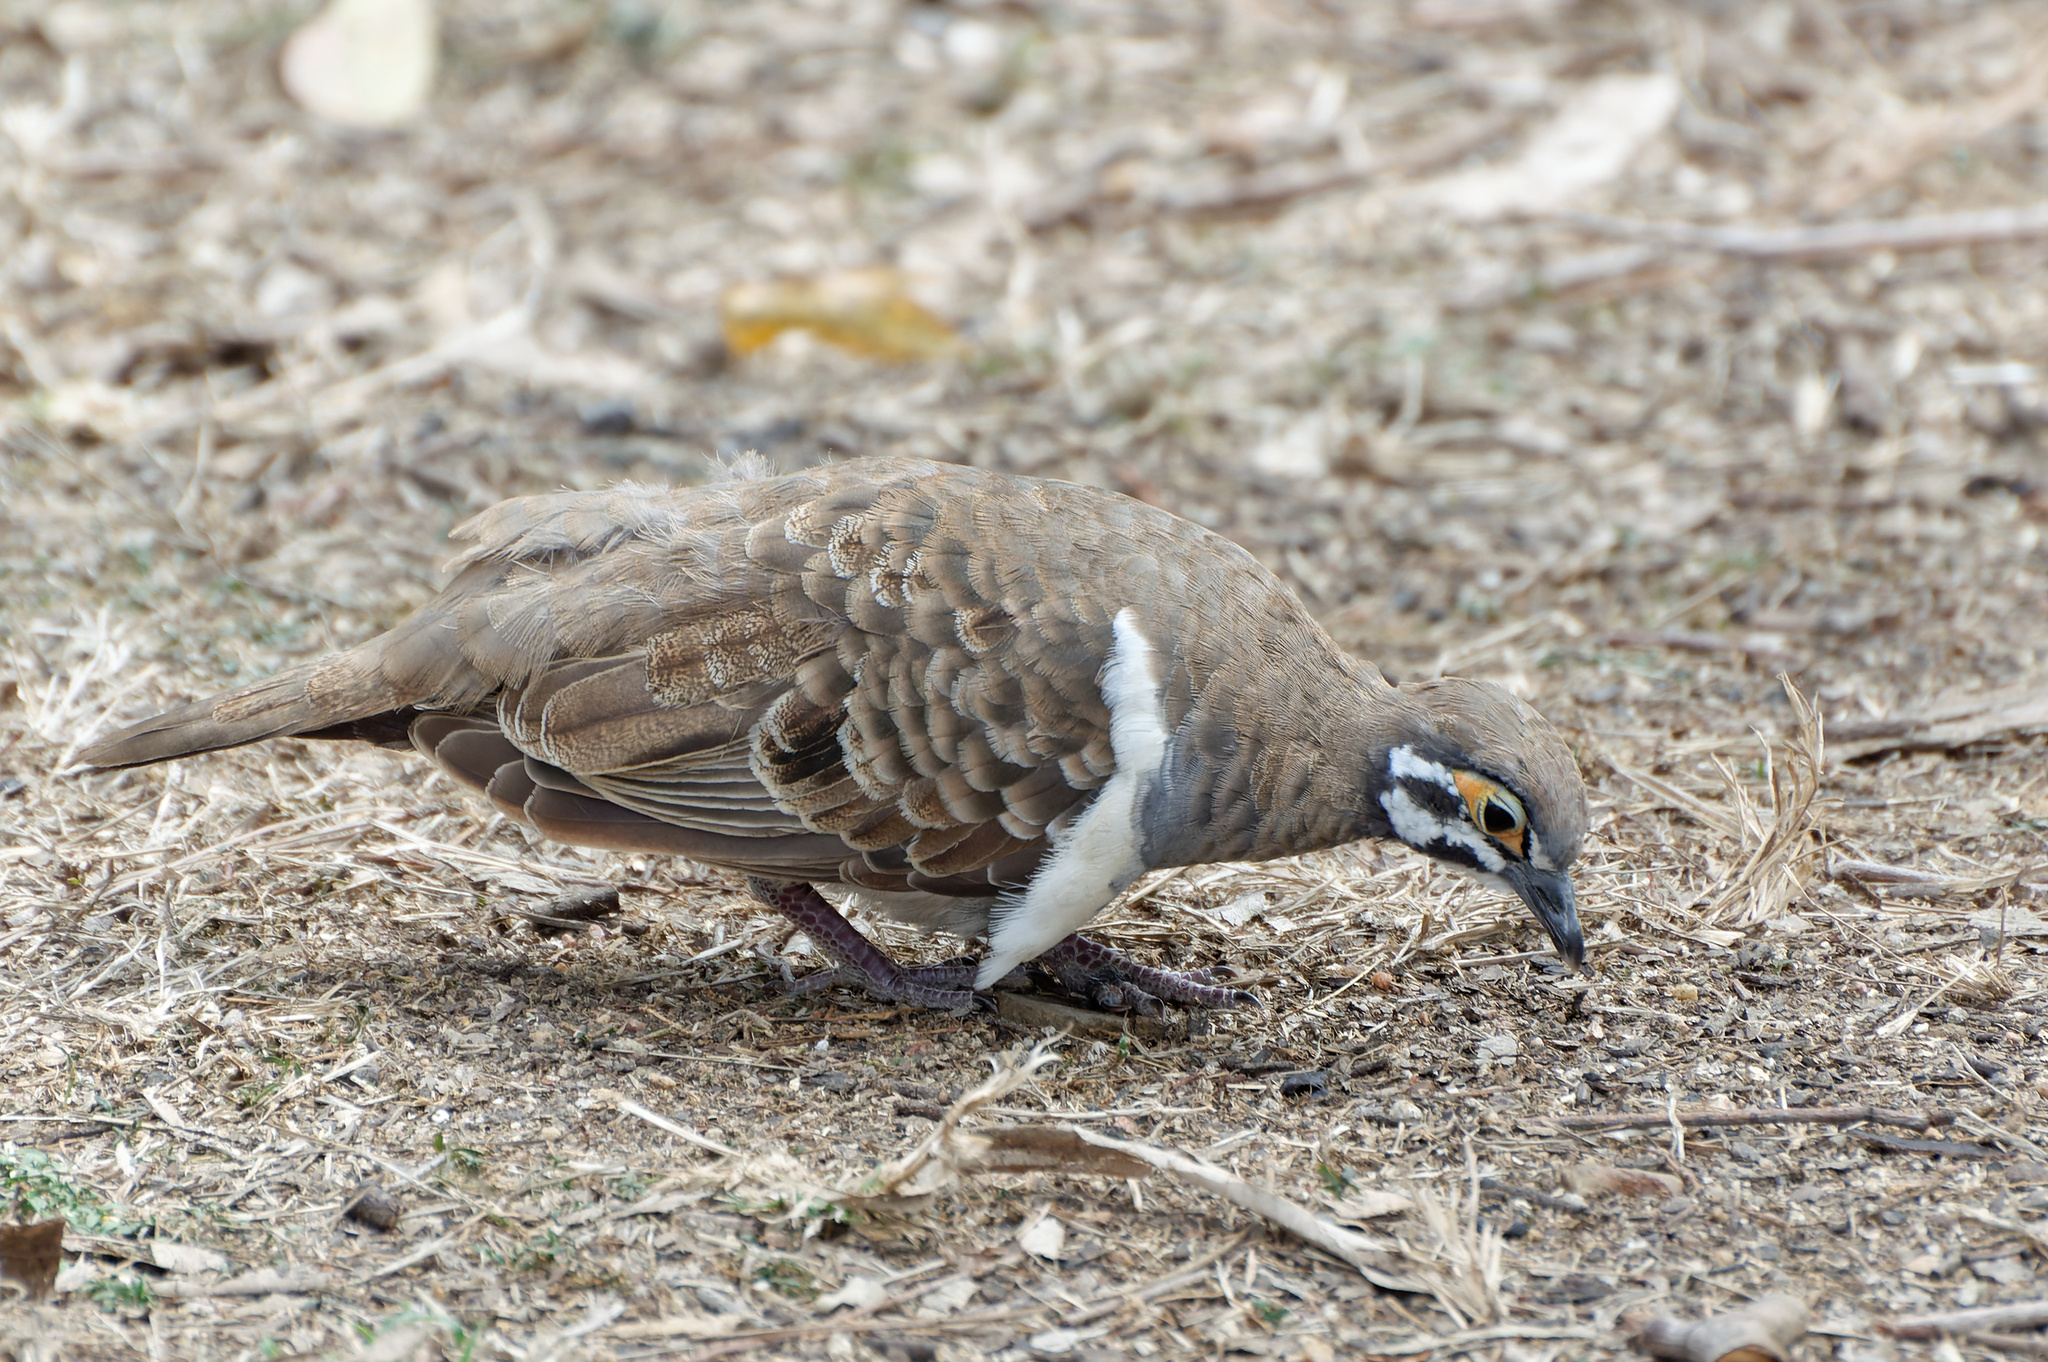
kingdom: Animalia
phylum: Chordata
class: Aves
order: Columbiformes
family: Columbidae
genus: Geophaps
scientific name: Geophaps scripta
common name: Squatter pigeon
